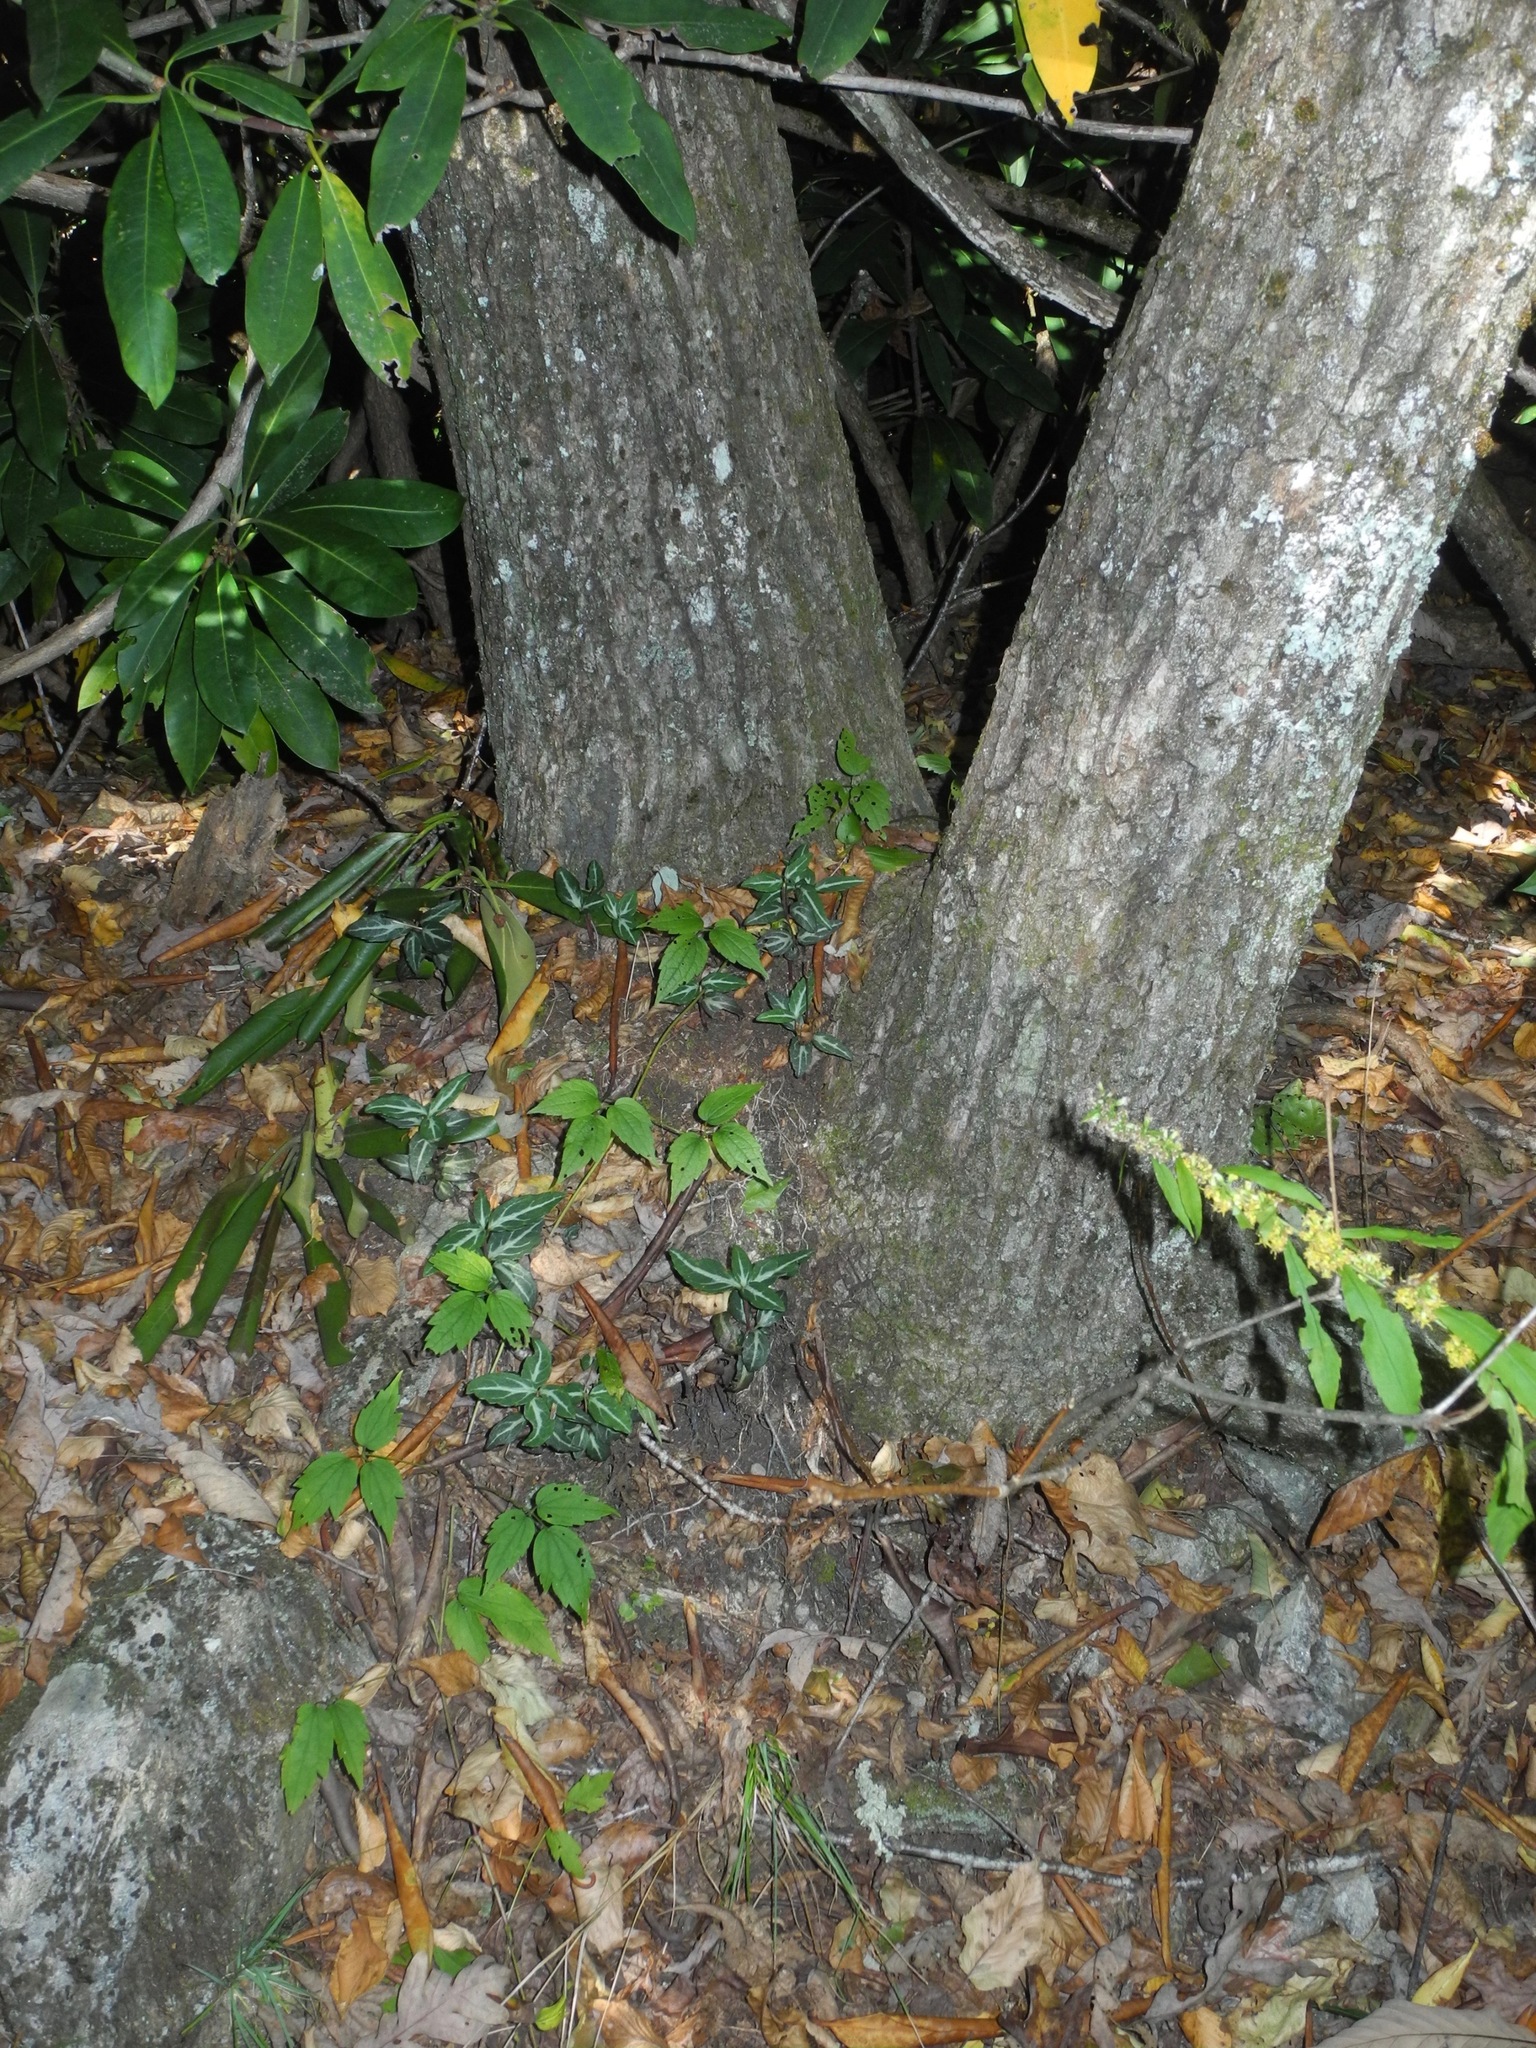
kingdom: Plantae
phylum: Tracheophyta
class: Magnoliopsida
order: Ericales
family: Ericaceae
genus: Chimaphila
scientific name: Chimaphila maculata
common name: Spotted pipsissewa
